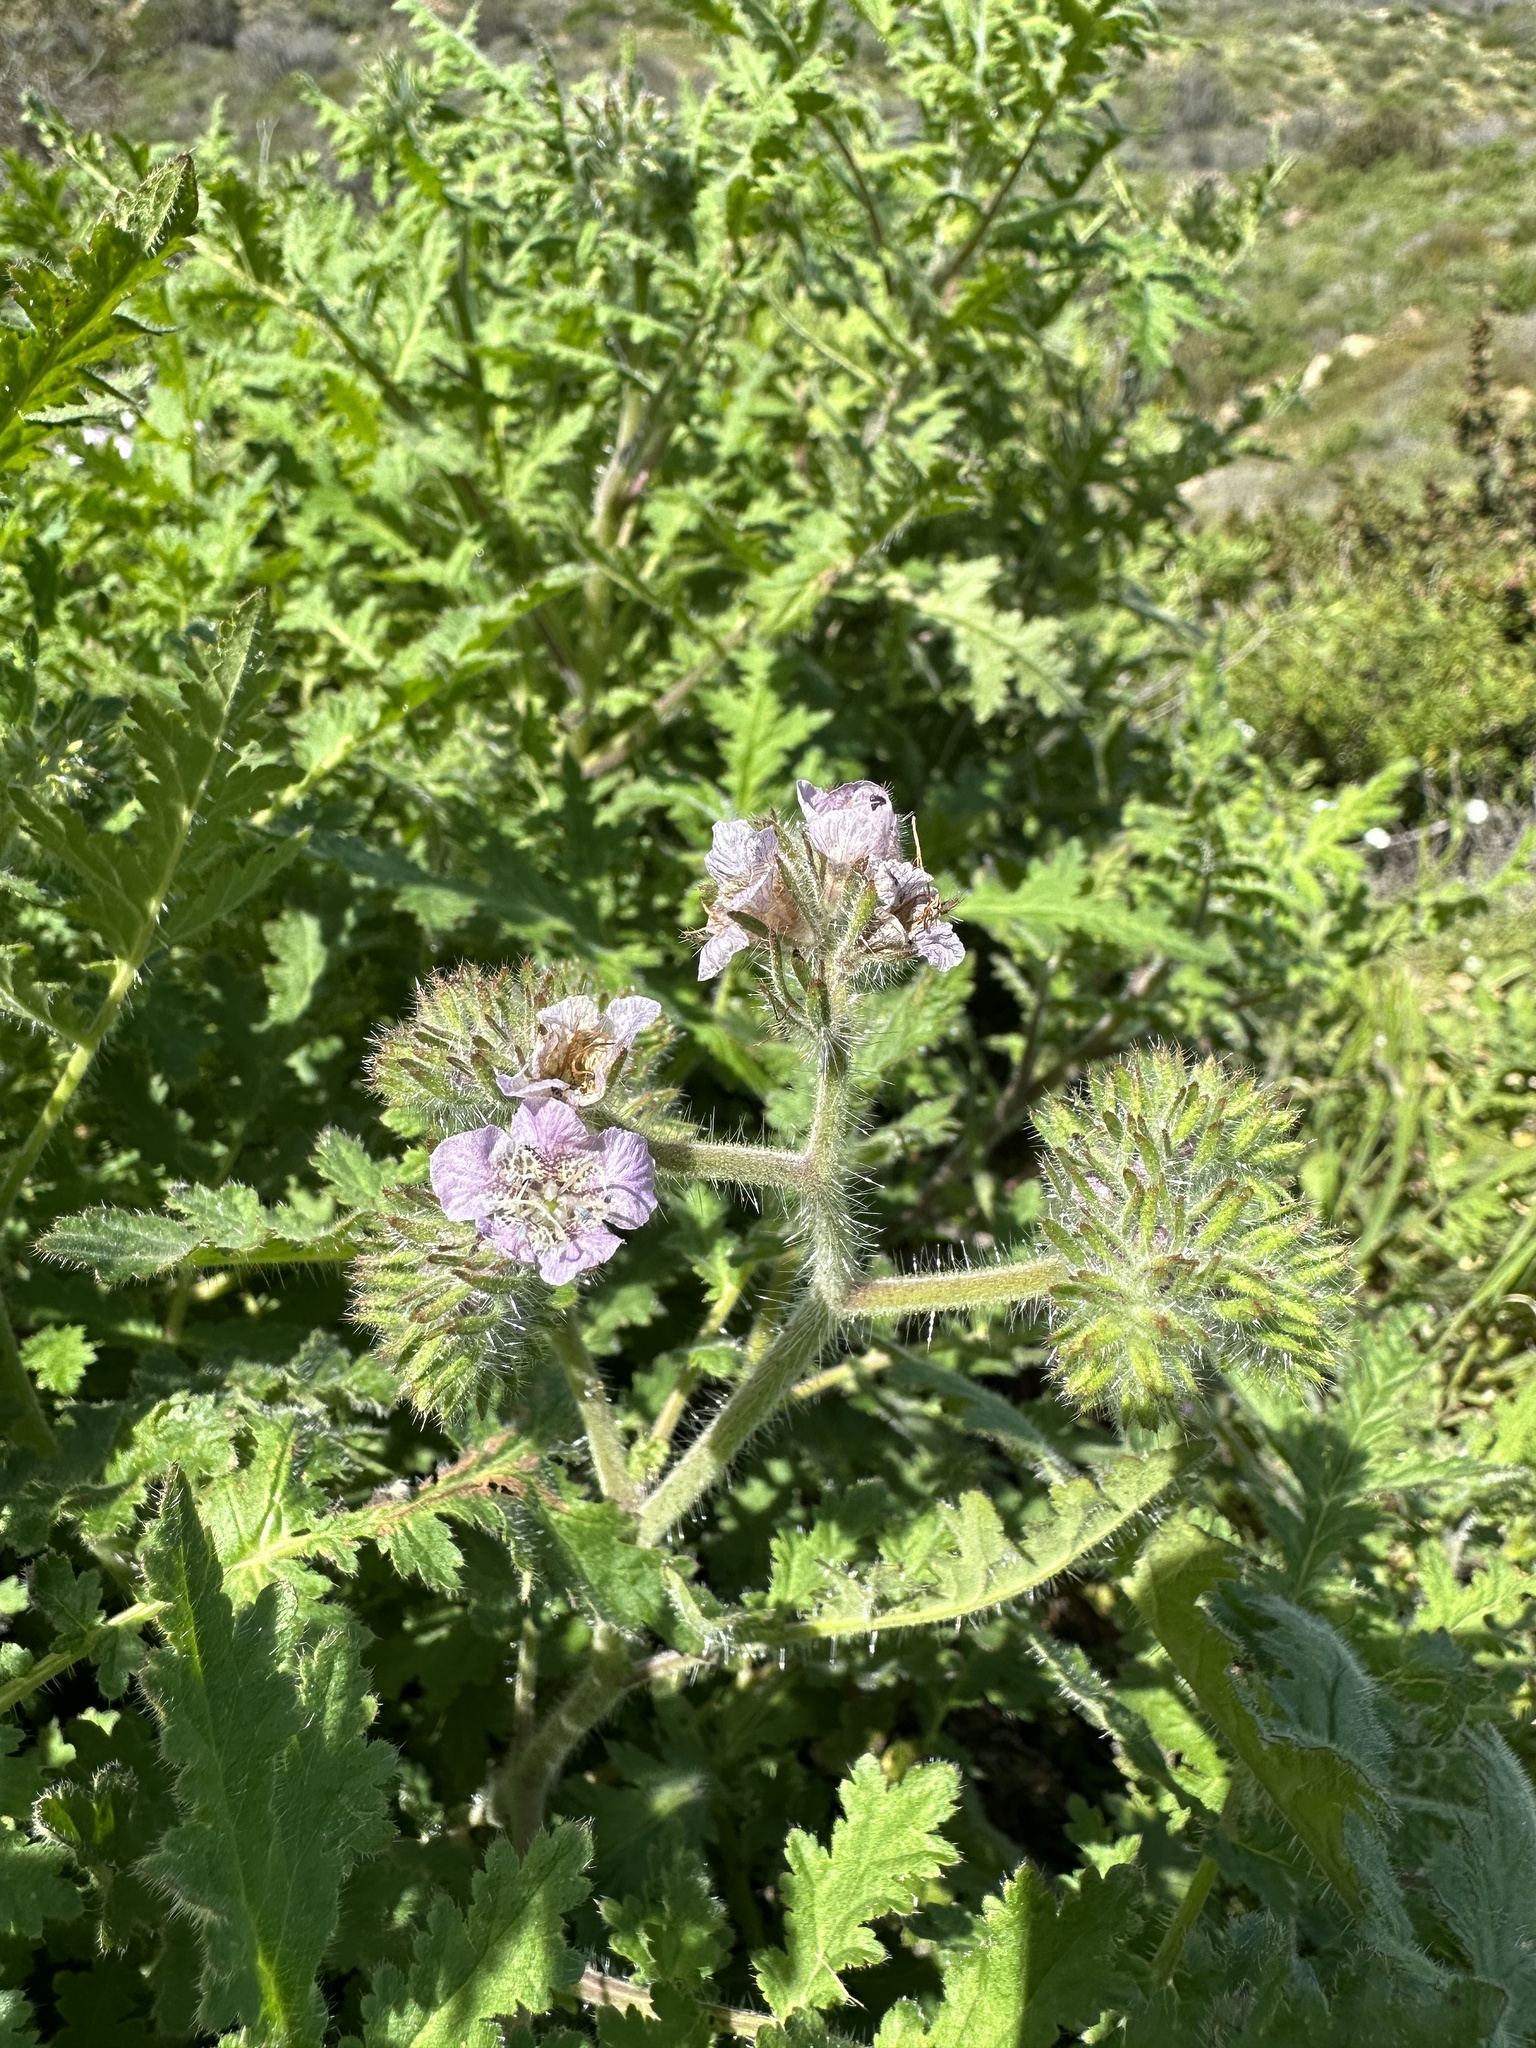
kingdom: Plantae
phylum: Tracheophyta
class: Magnoliopsida
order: Boraginales
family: Hydrophyllaceae
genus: Phacelia
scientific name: Phacelia cicutaria
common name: Caterpillar phacelia
